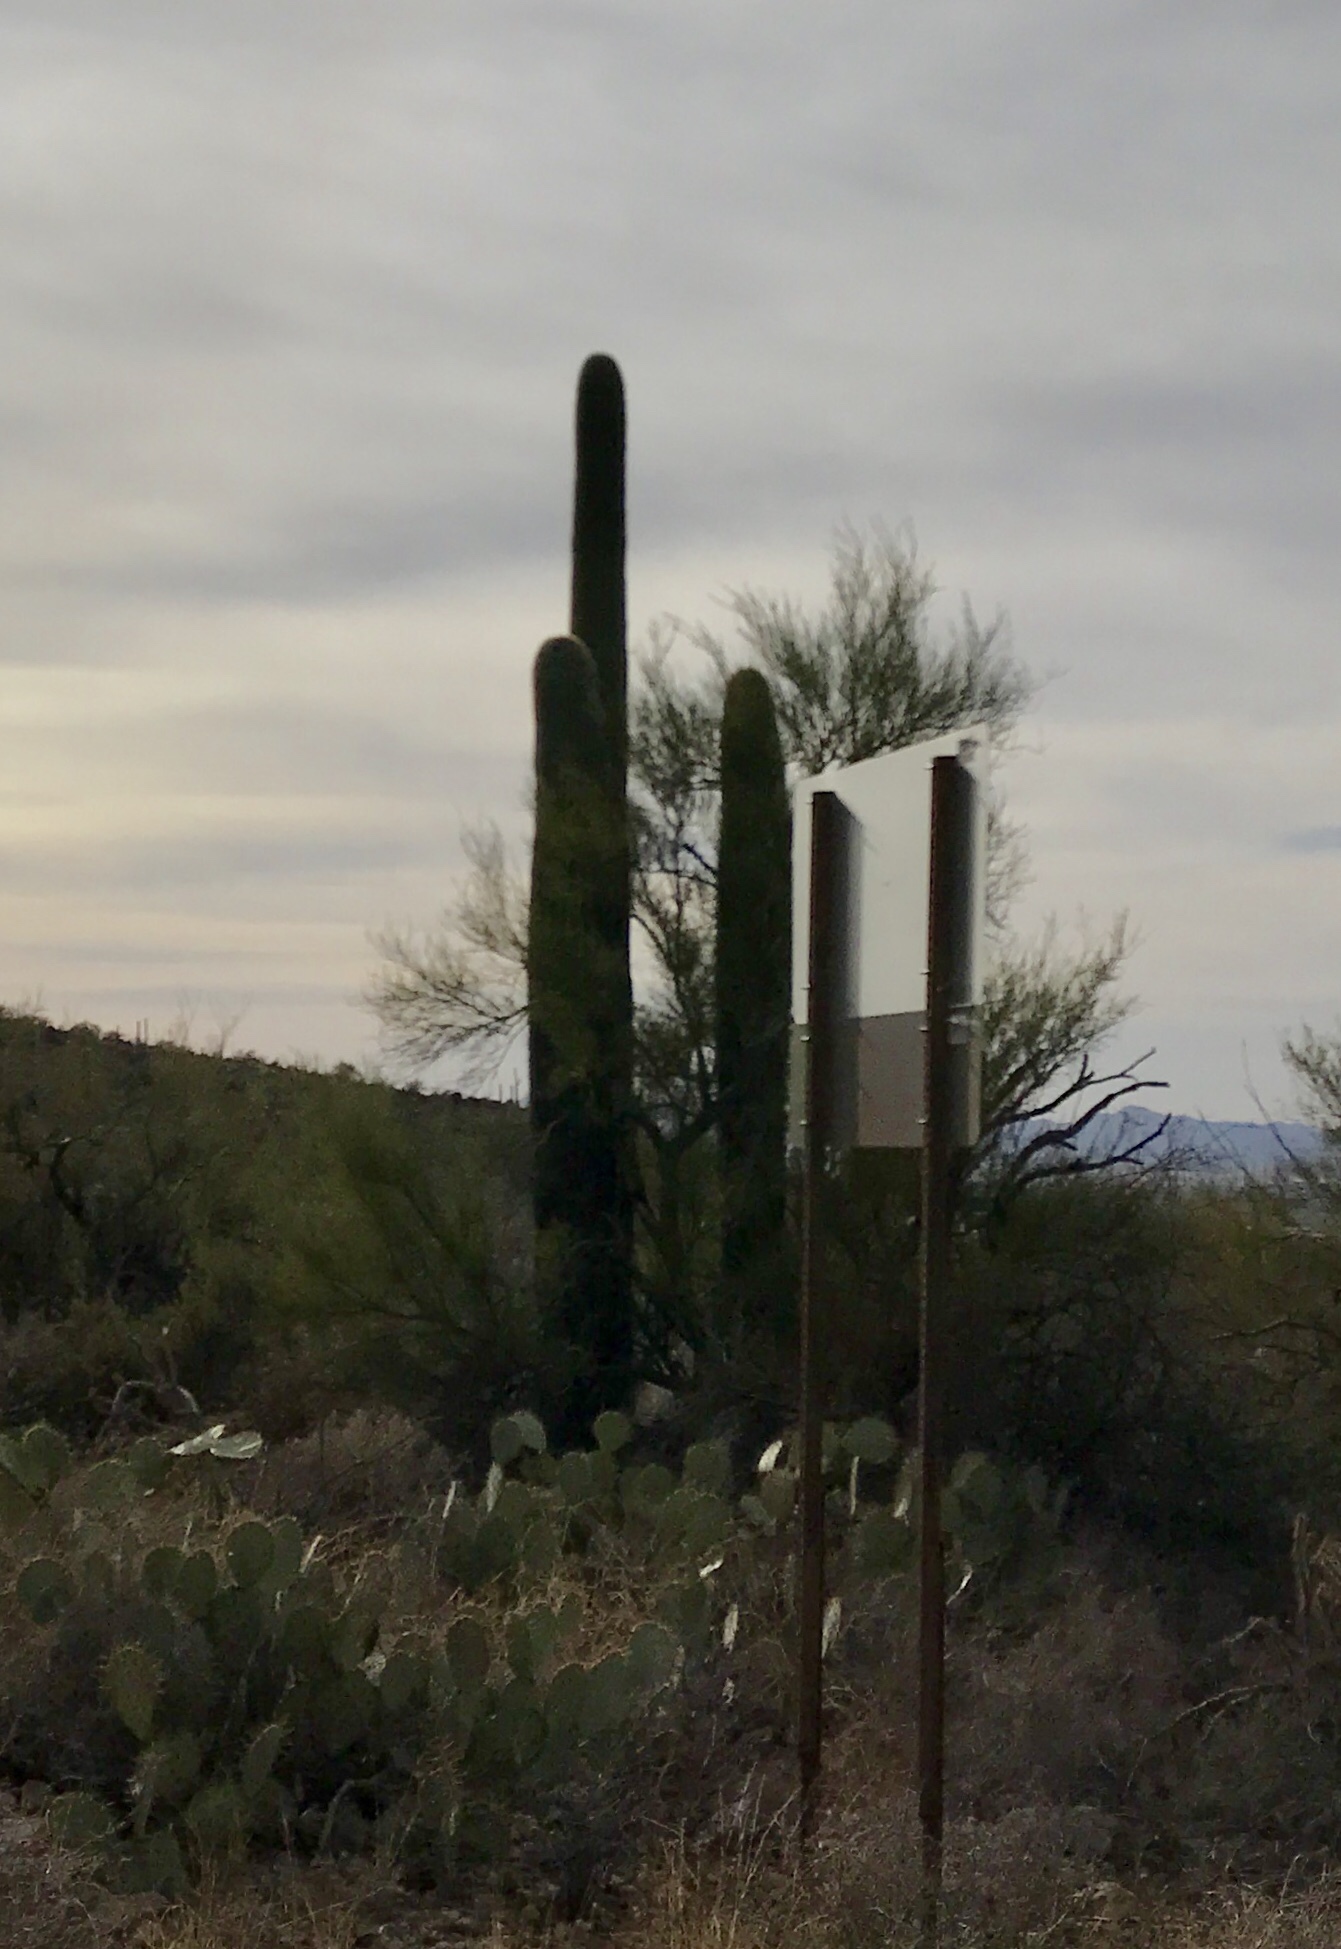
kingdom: Plantae
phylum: Tracheophyta
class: Magnoliopsida
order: Caryophyllales
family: Cactaceae
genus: Carnegiea
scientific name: Carnegiea gigantea
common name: Saguaro
